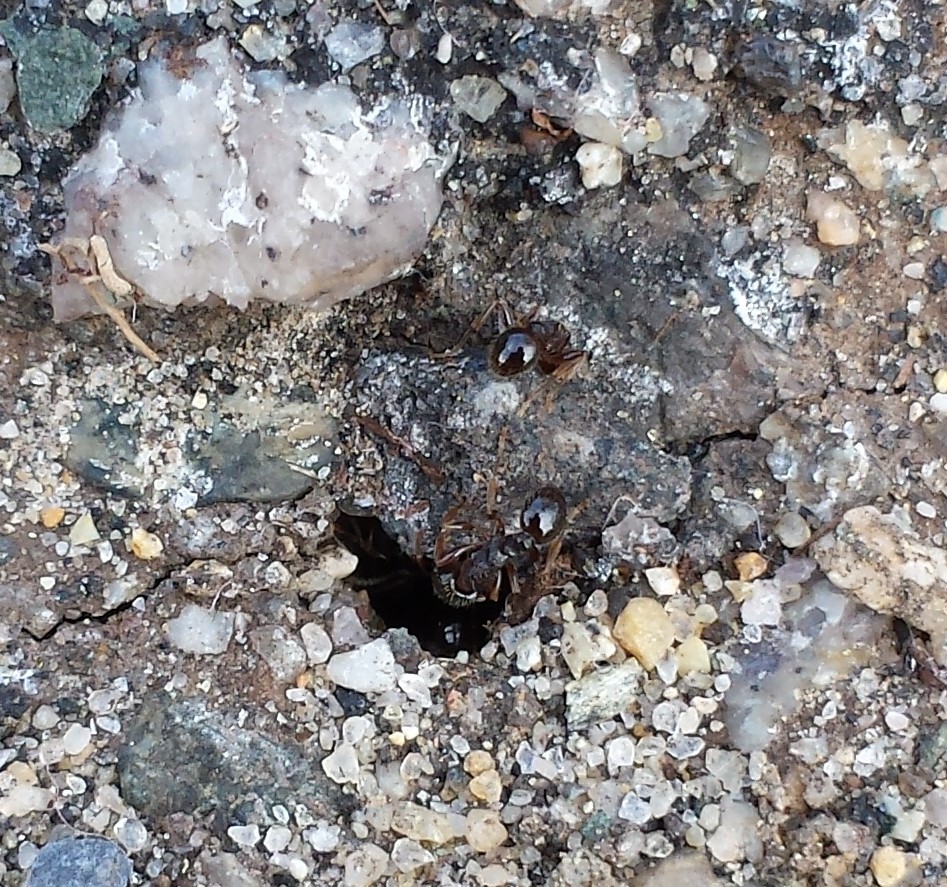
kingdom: Animalia
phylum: Arthropoda
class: Insecta
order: Hymenoptera
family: Formicidae
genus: Tetramorium
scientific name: Tetramorium immigrans
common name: Pavement ant
